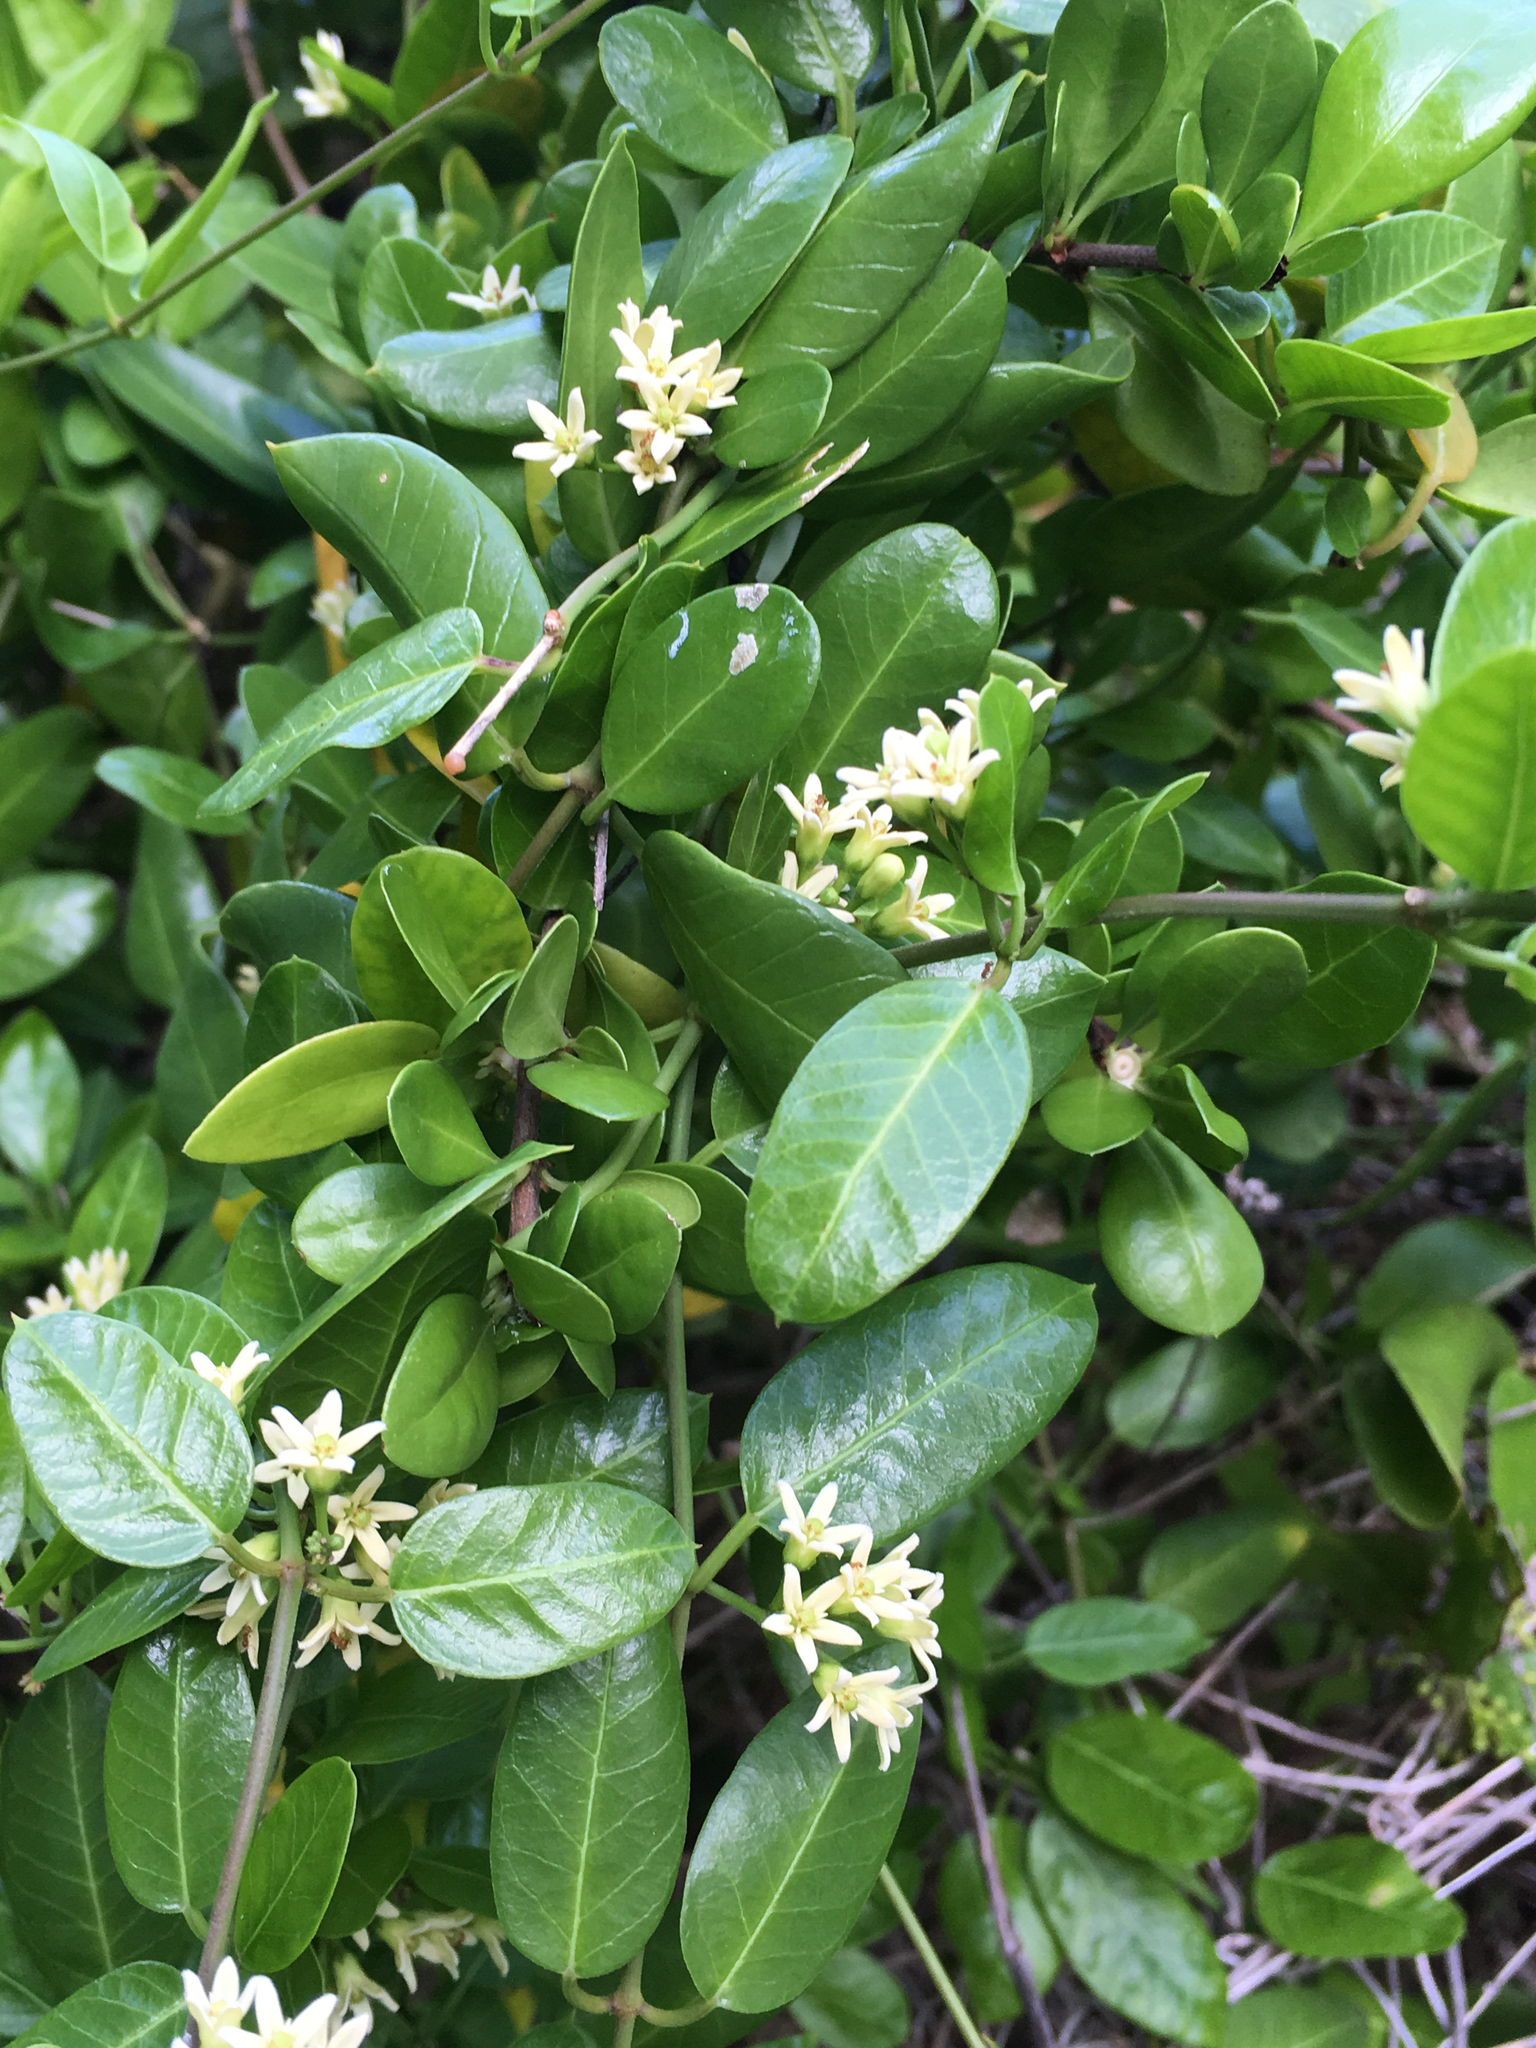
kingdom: Plantae
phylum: Tracheophyta
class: Magnoliopsida
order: Gentianales
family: Apocynaceae
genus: Metastelma
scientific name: Metastelma northropiae
